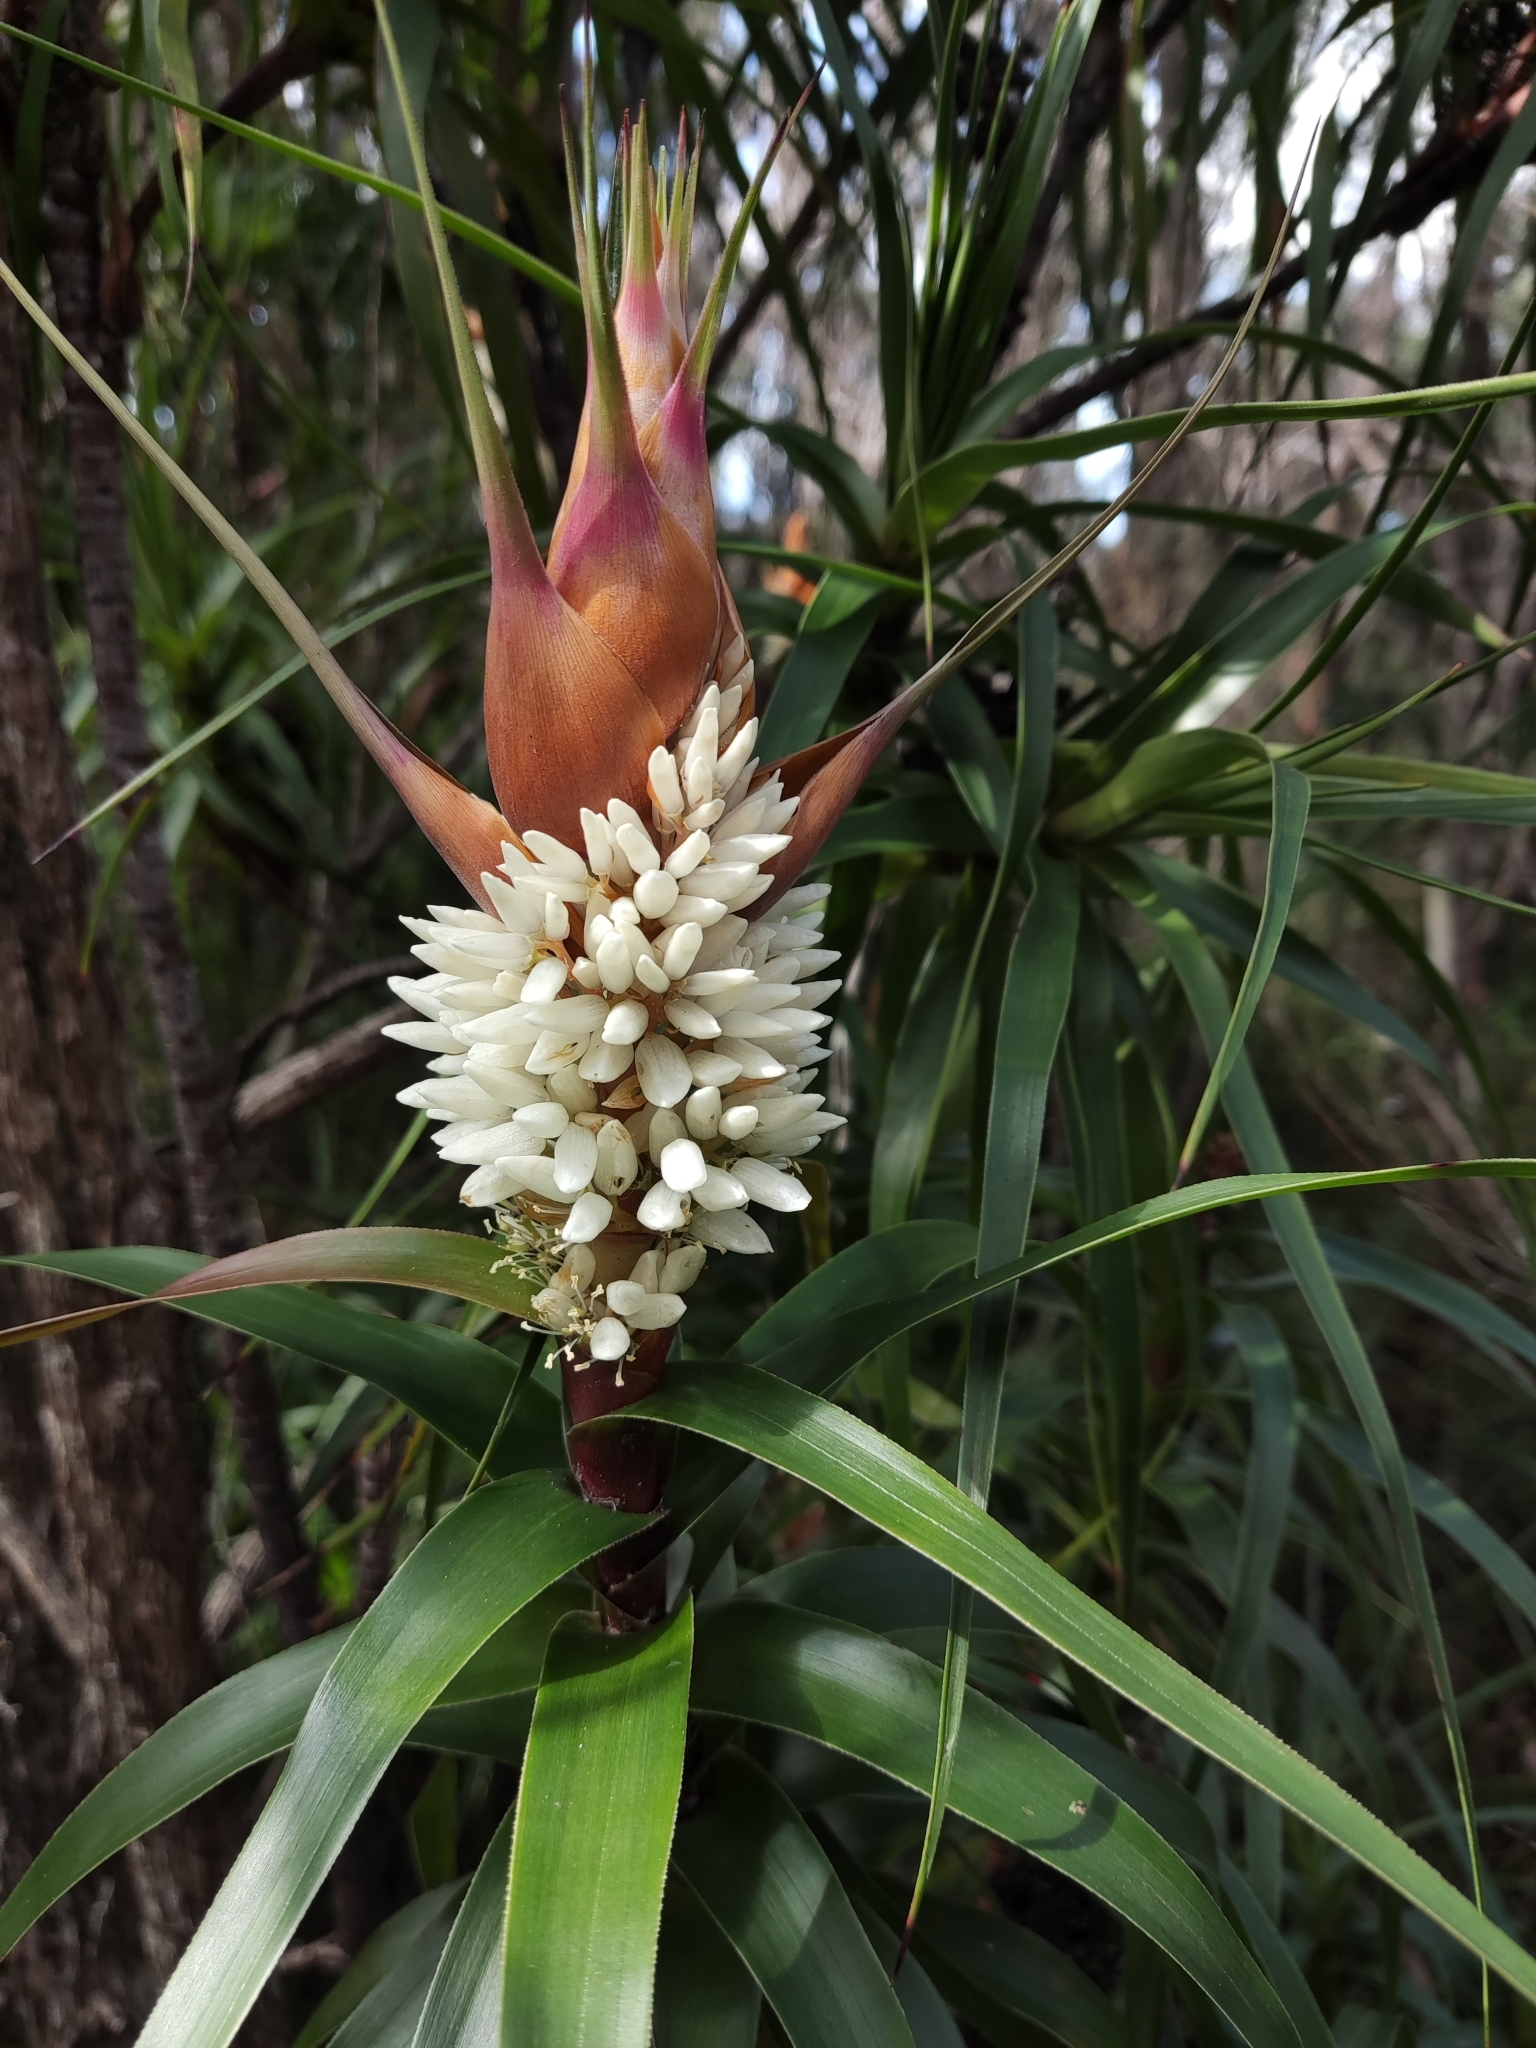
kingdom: Plantae
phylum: Tracheophyta
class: Magnoliopsida
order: Ericales
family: Ericaceae
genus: Dracophyllum
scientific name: Dracophyllum desgrazii
